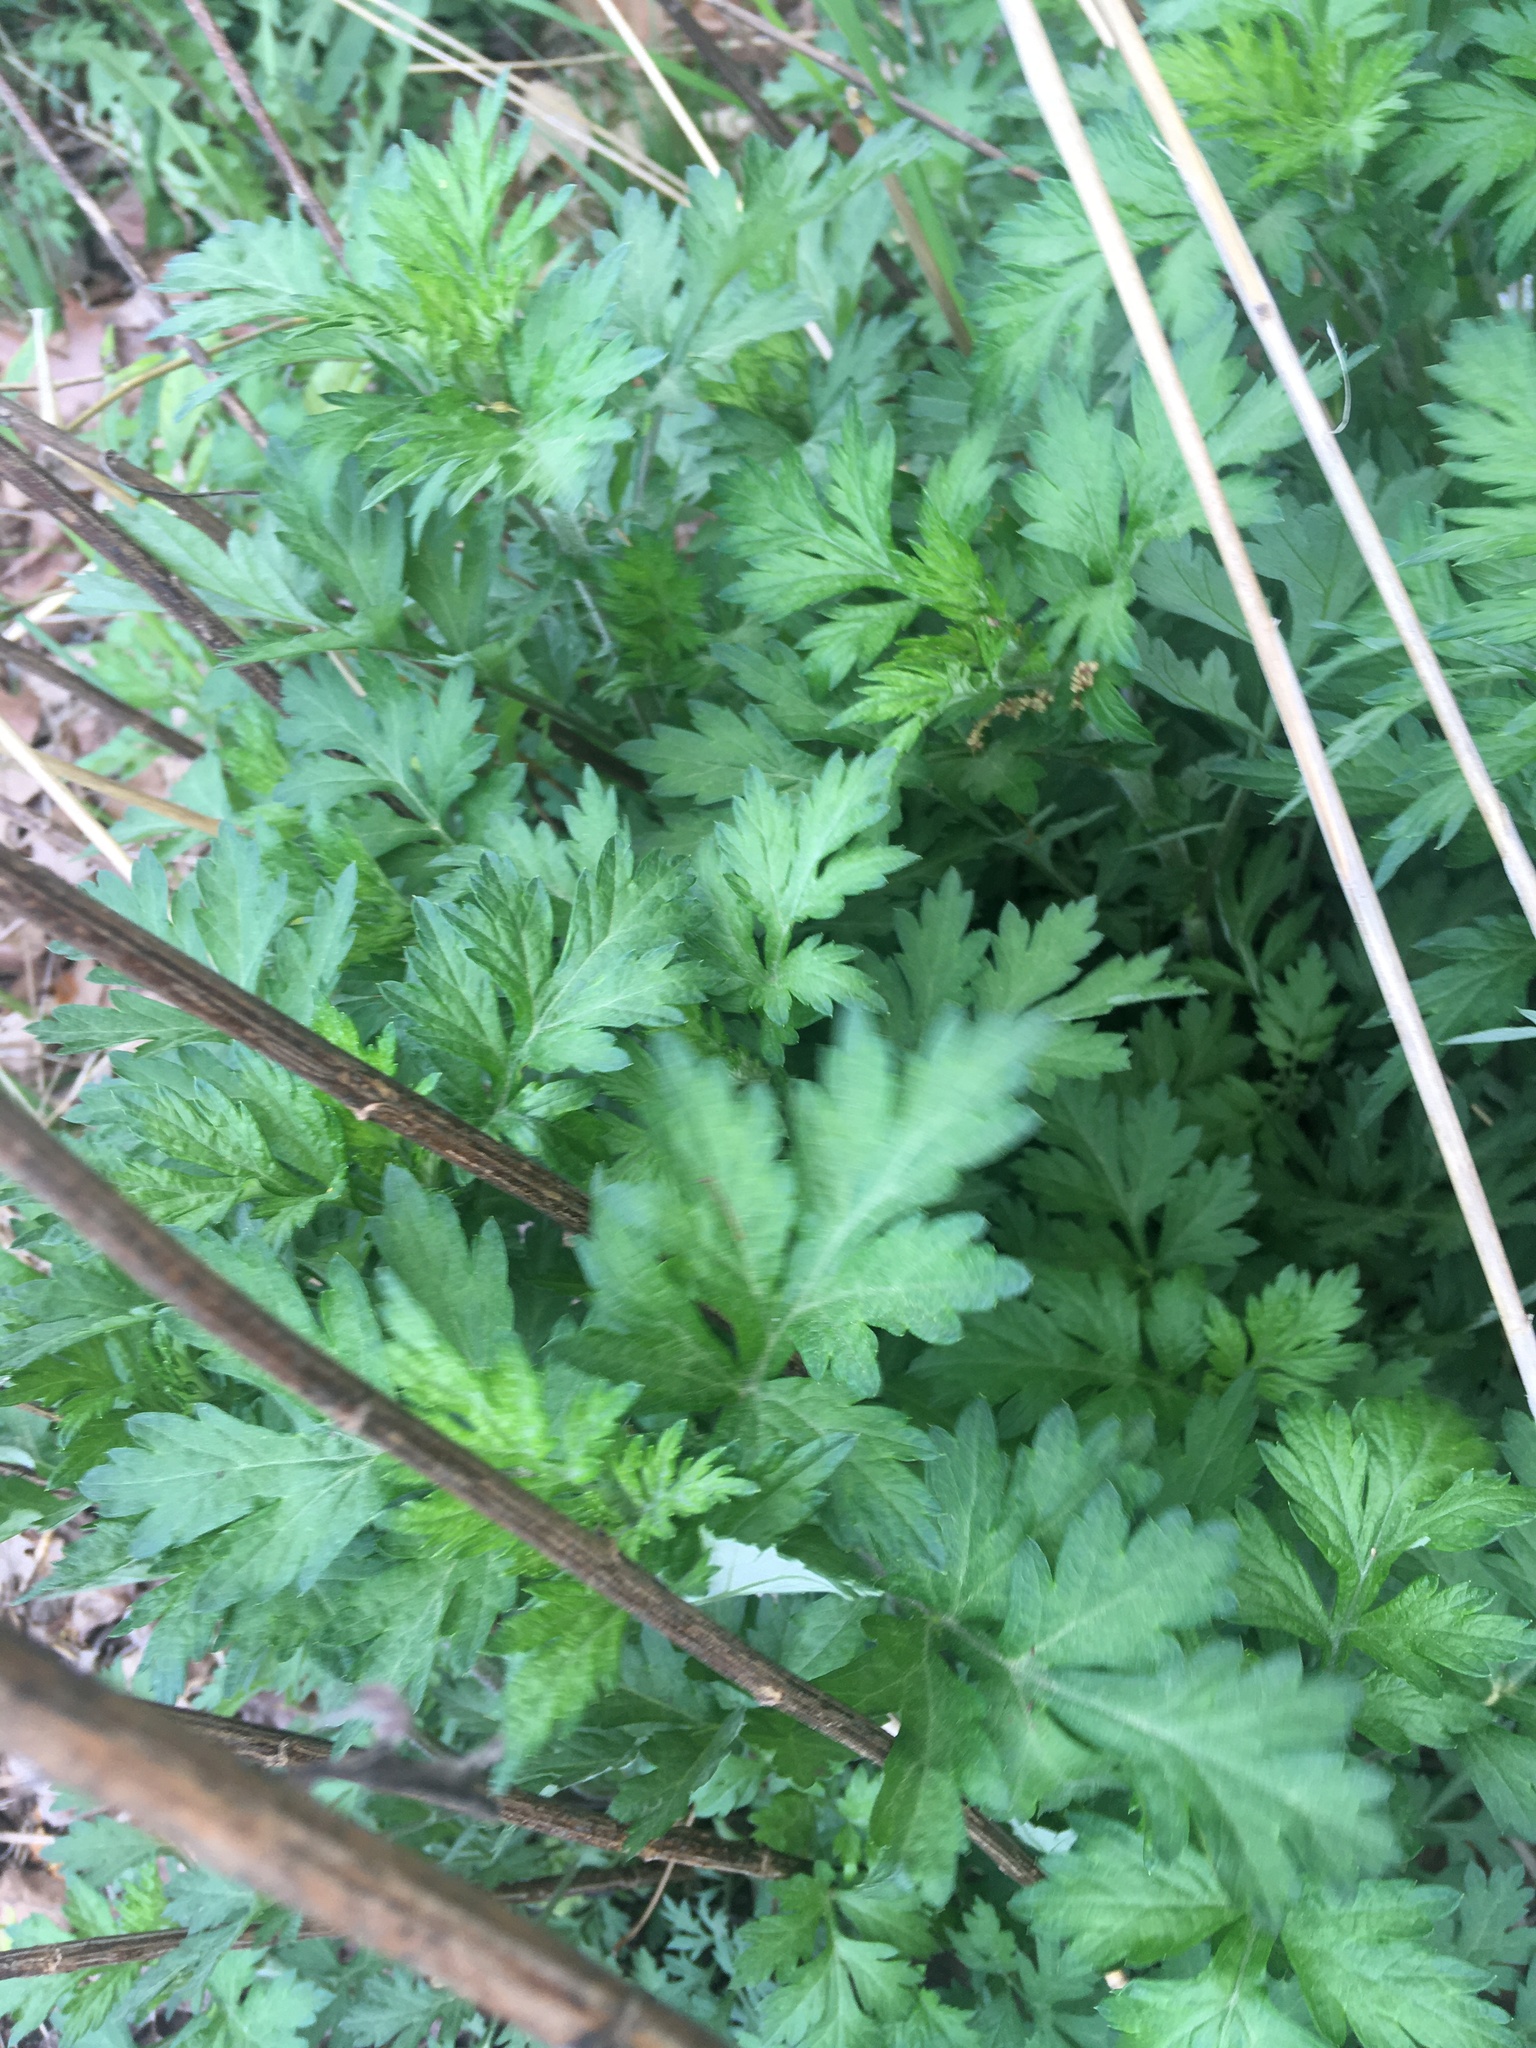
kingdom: Plantae
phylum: Tracheophyta
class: Magnoliopsida
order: Asterales
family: Asteraceae
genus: Artemisia
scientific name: Artemisia vulgaris
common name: Mugwort
